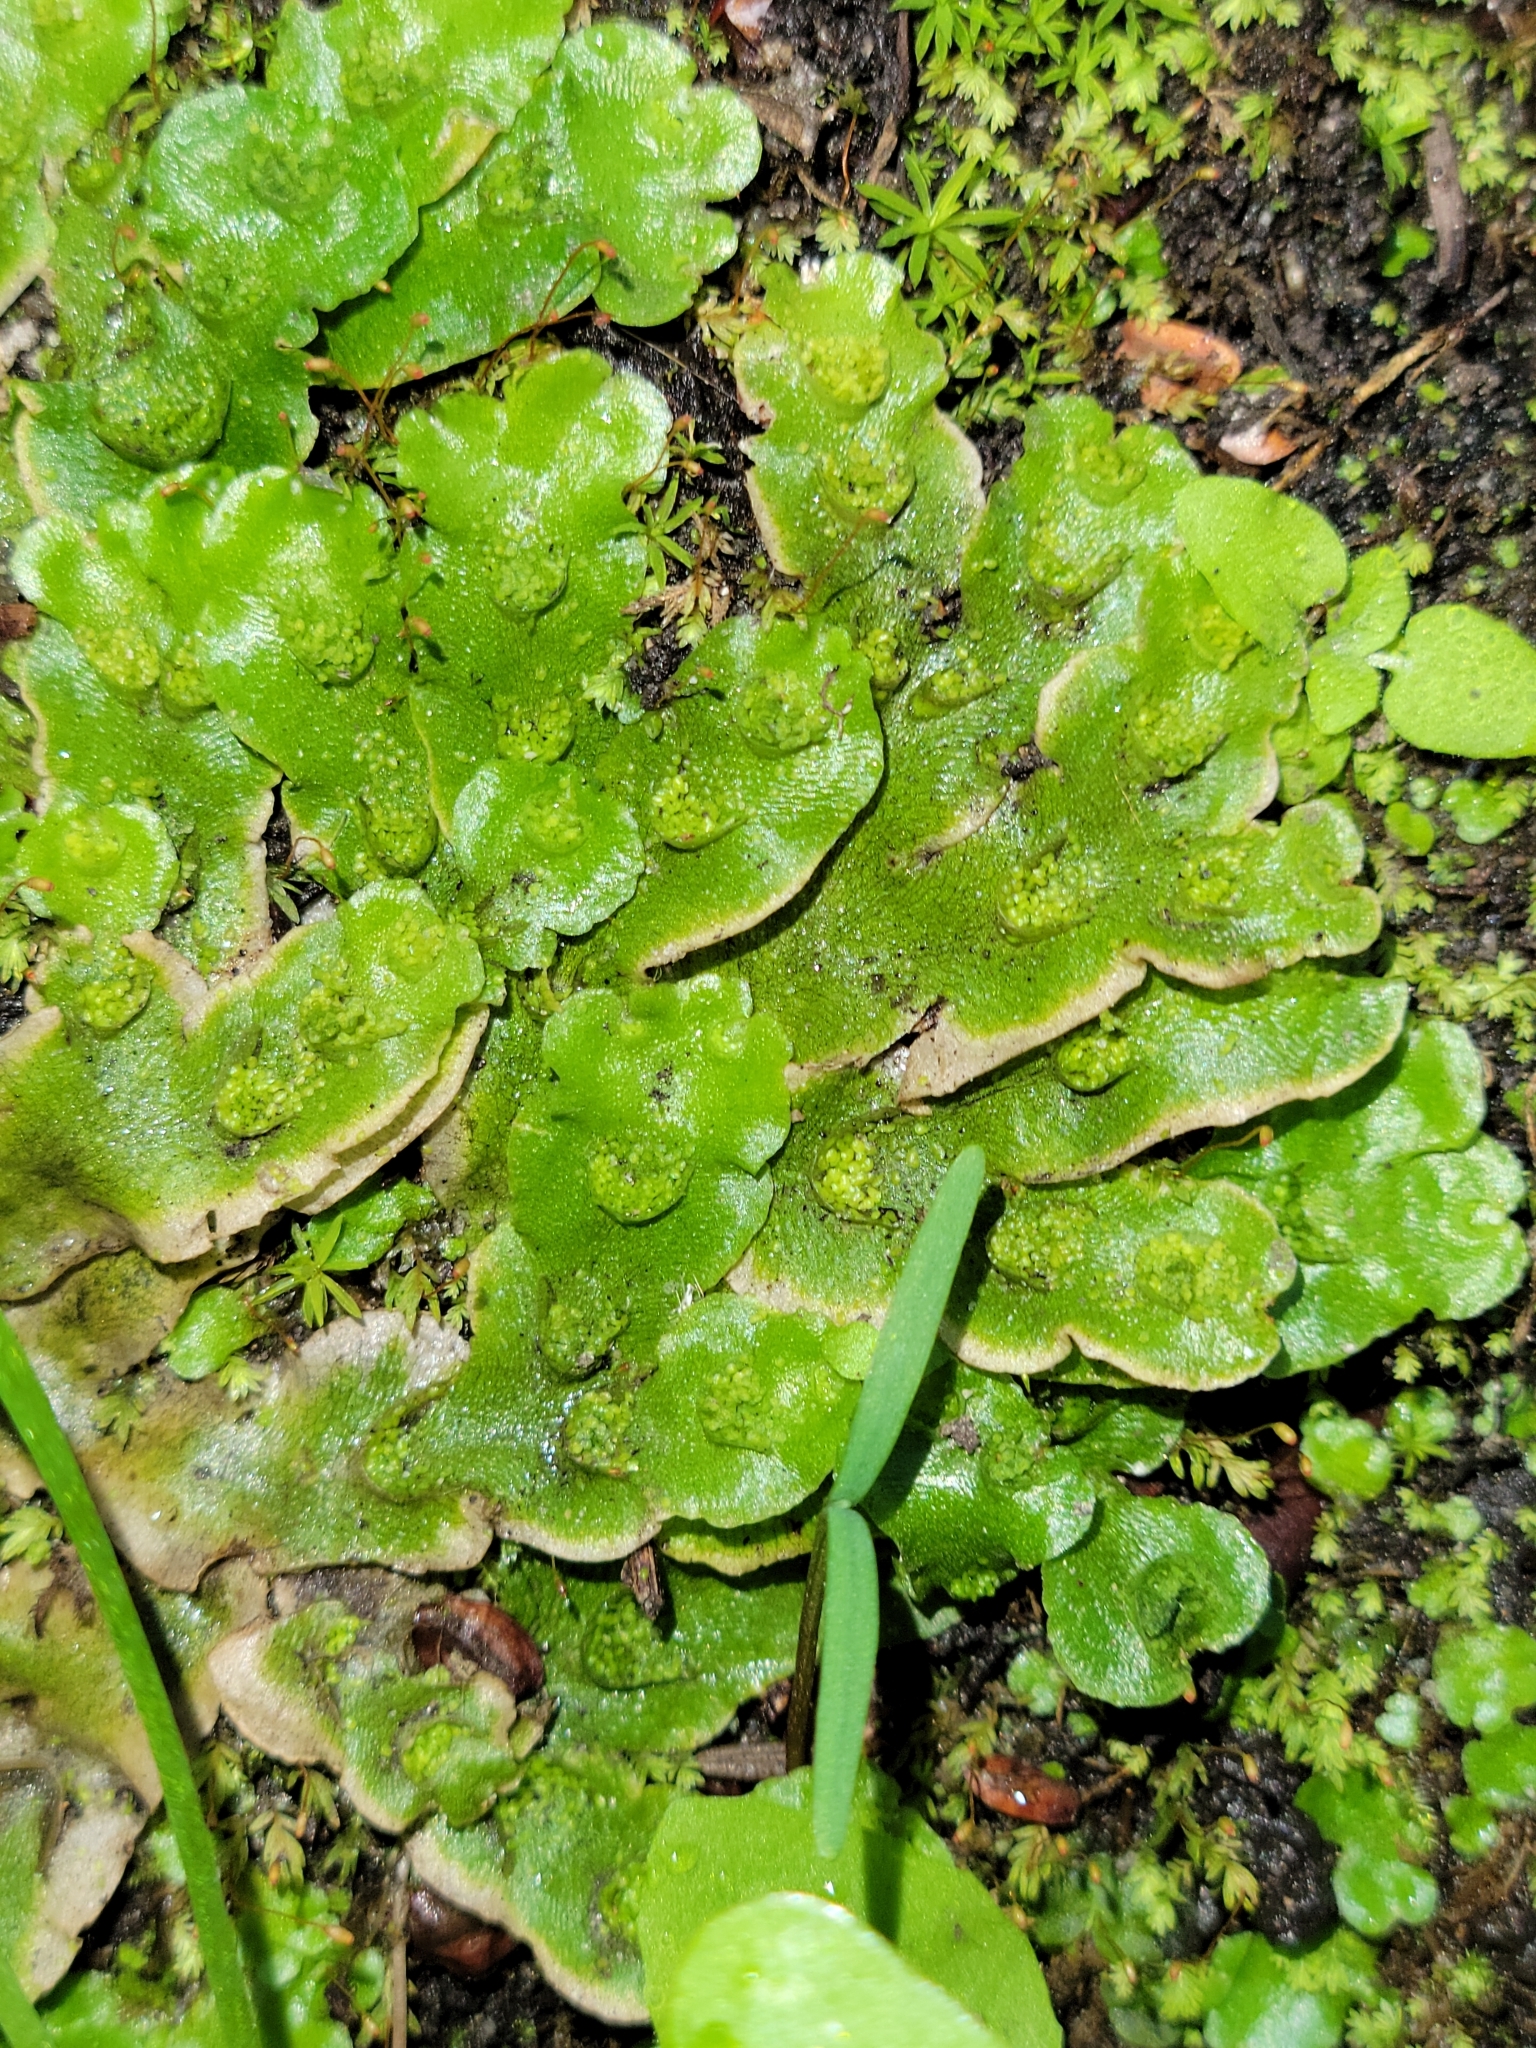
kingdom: Plantae
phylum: Marchantiophyta
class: Marchantiopsida
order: Lunulariales
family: Lunulariaceae
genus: Lunularia
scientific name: Lunularia cruciata
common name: Crescent-cup liverwort
